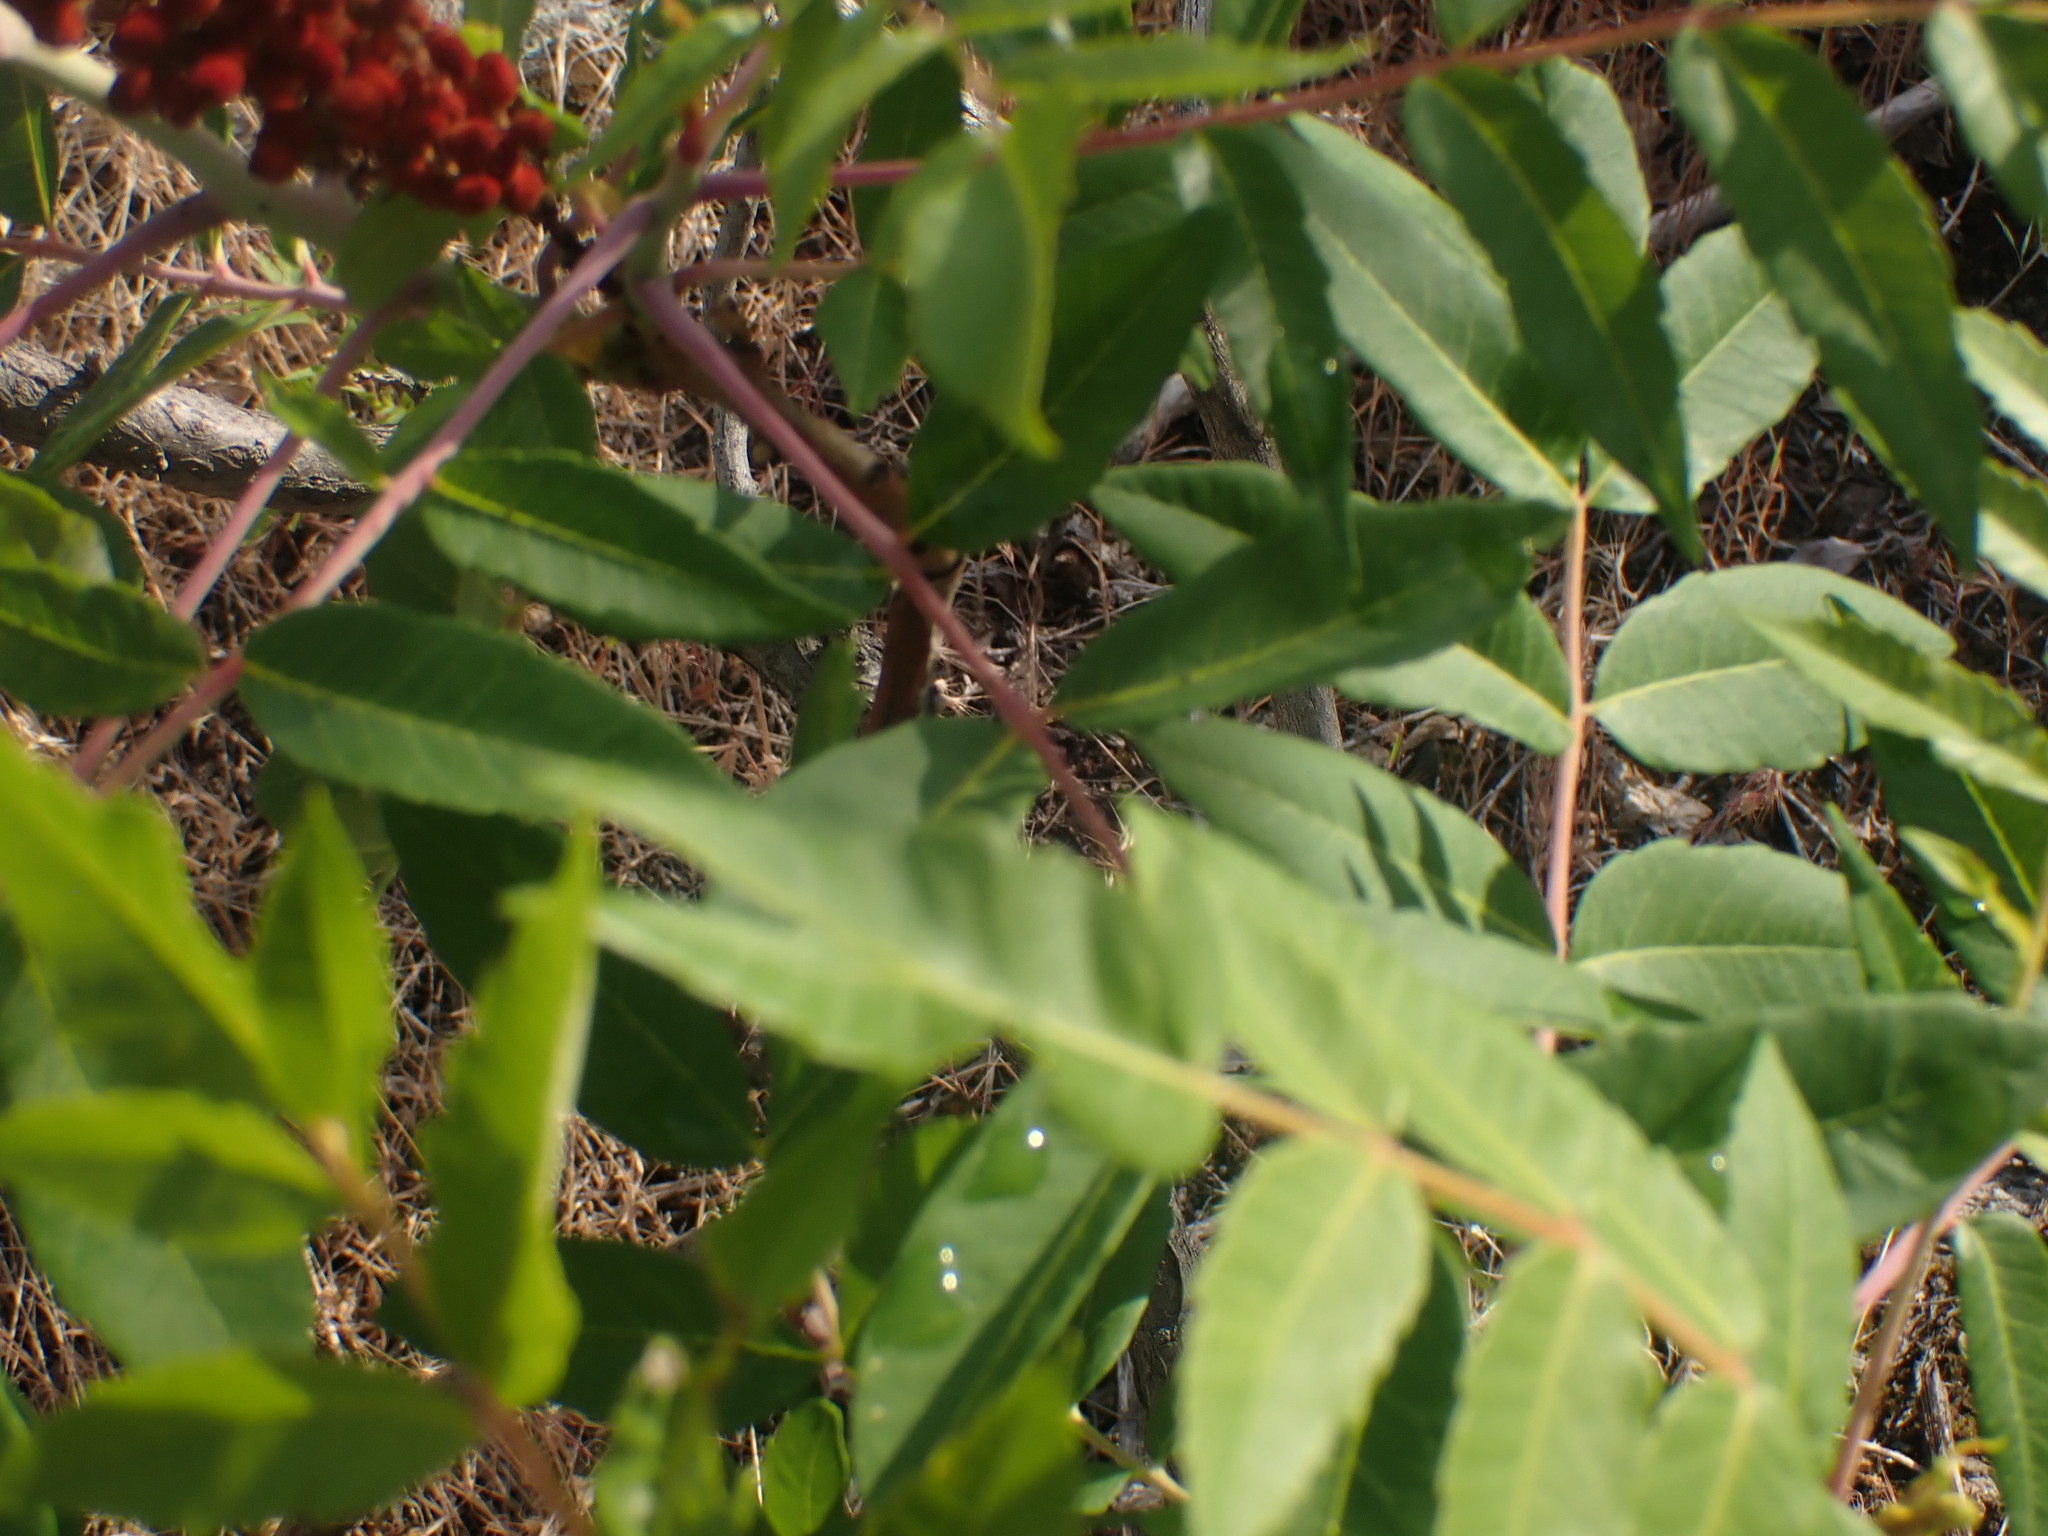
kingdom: Plantae
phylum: Tracheophyta
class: Magnoliopsida
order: Sapindales
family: Anacardiaceae
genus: Rhus
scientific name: Rhus glabra
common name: Scarlet sumac
